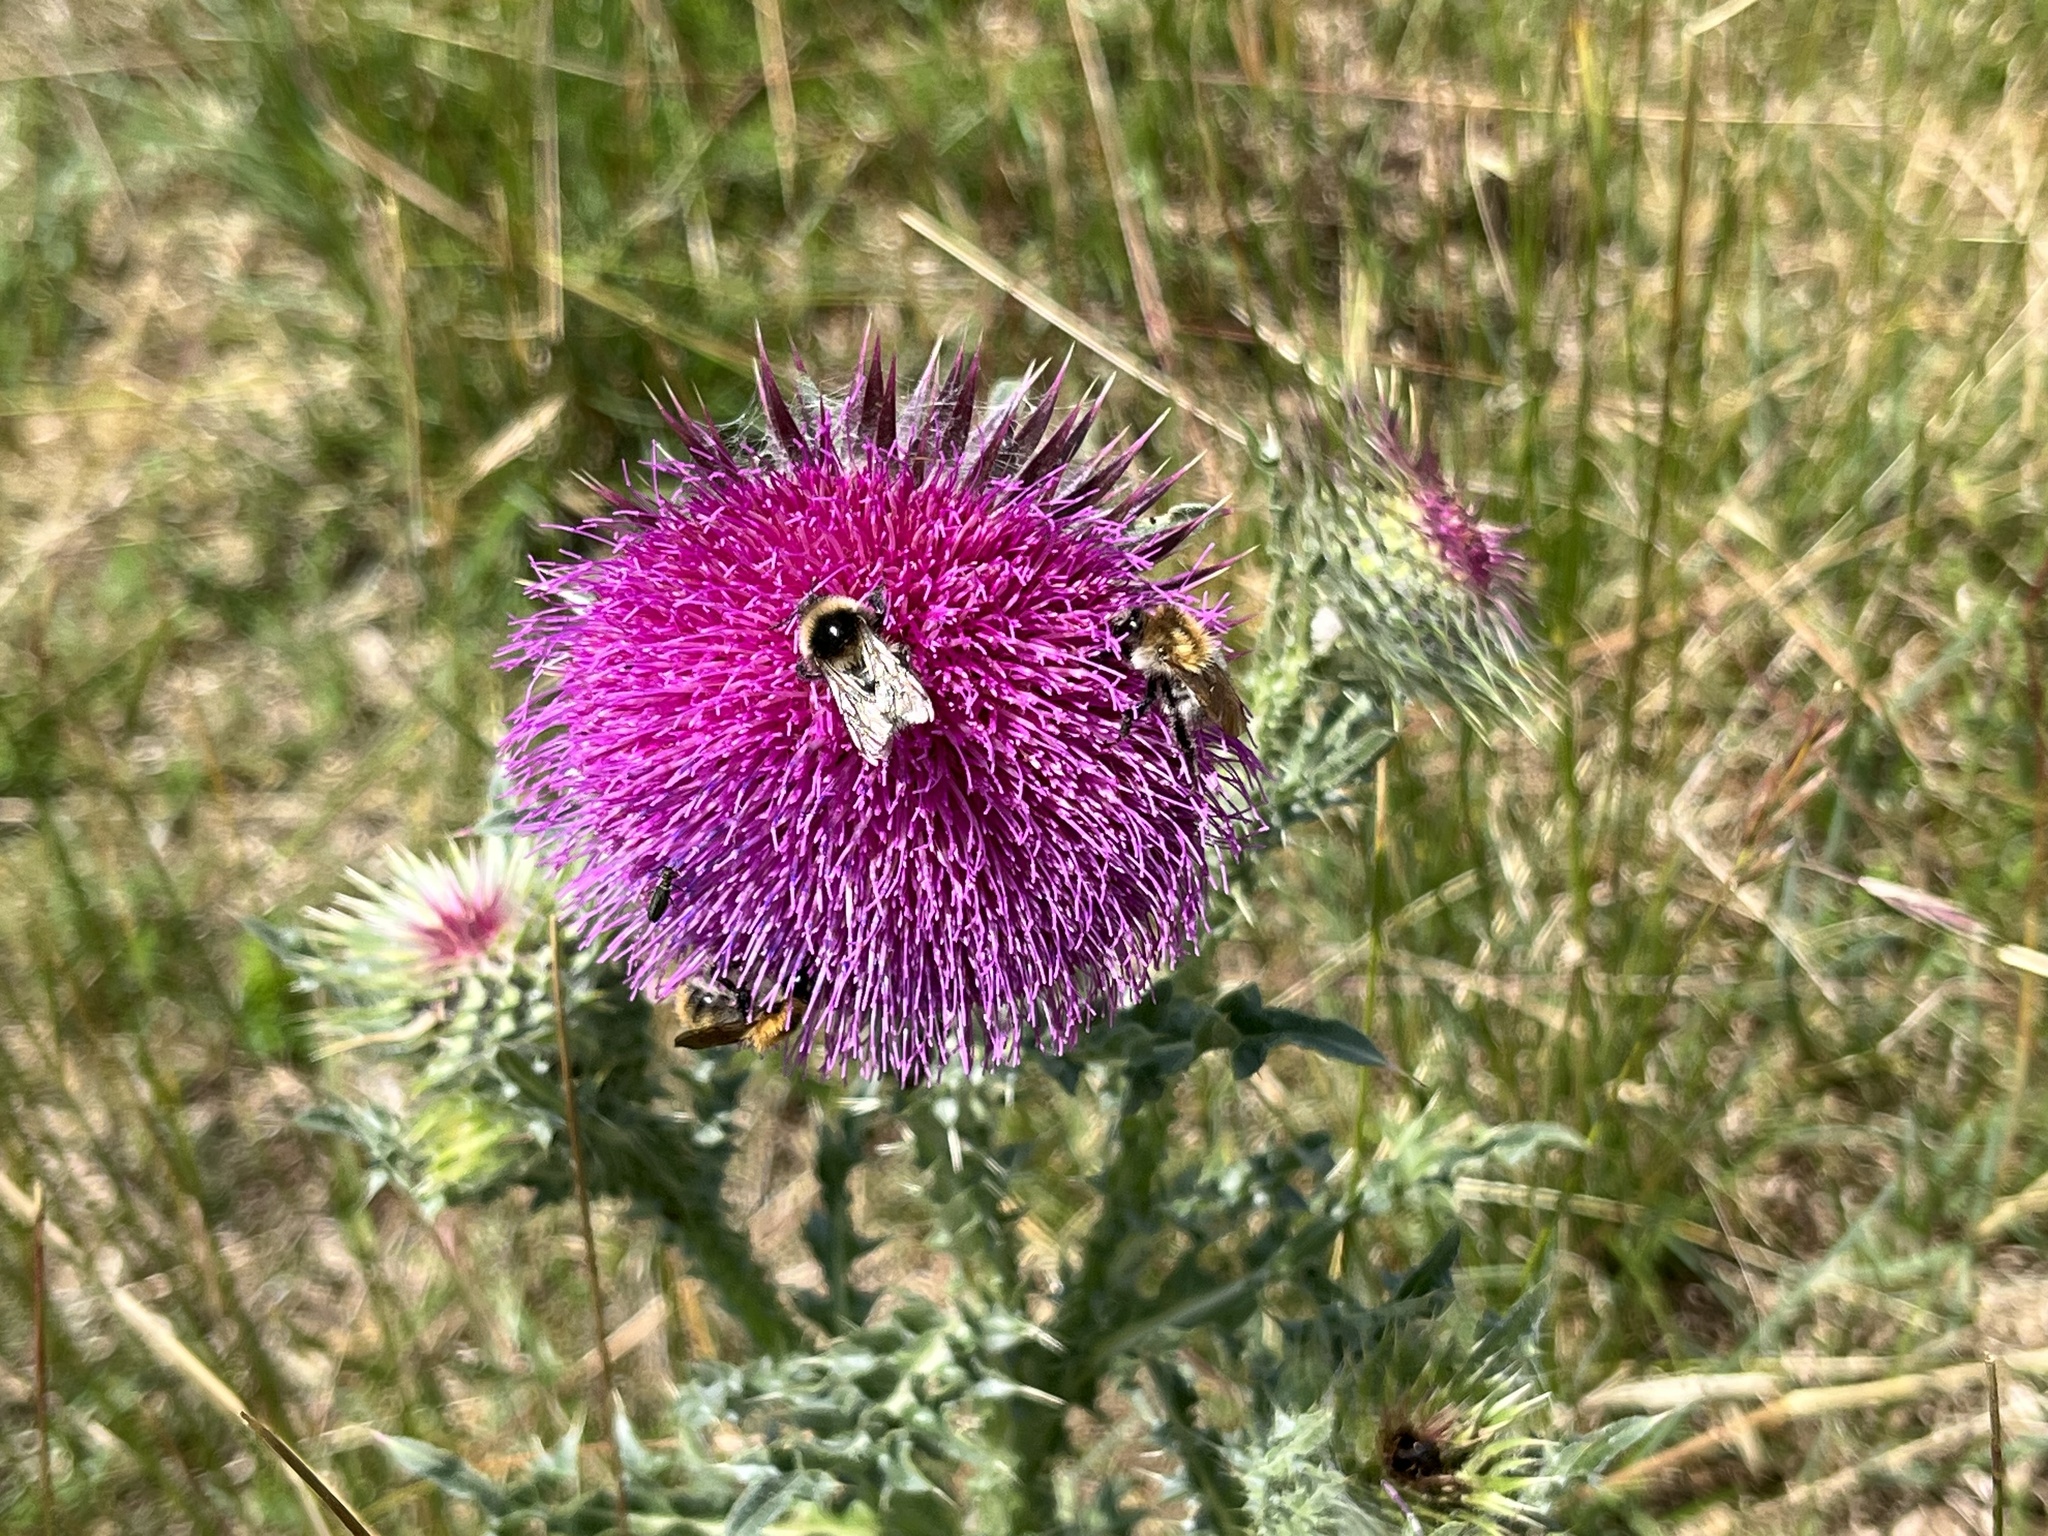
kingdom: Plantae
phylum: Tracheophyta
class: Magnoliopsida
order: Asterales
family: Asteraceae
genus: Carduus
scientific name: Carduus nutans
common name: Musk thistle
